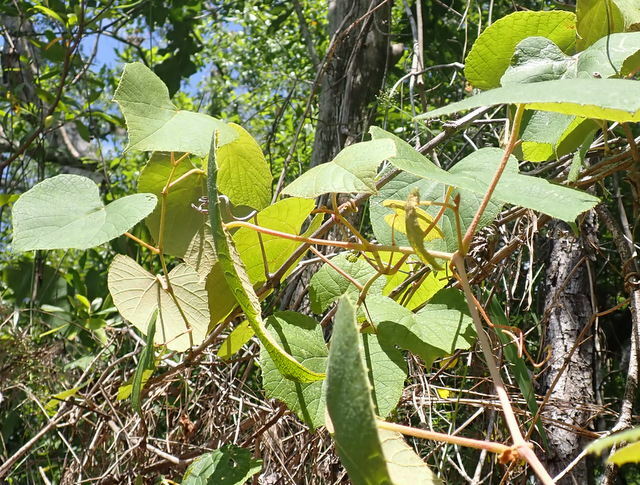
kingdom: Plantae
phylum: Tracheophyta
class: Magnoliopsida
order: Vitales
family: Vitaceae
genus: Vitis
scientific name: Vitis cinerea
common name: Ashy grape
